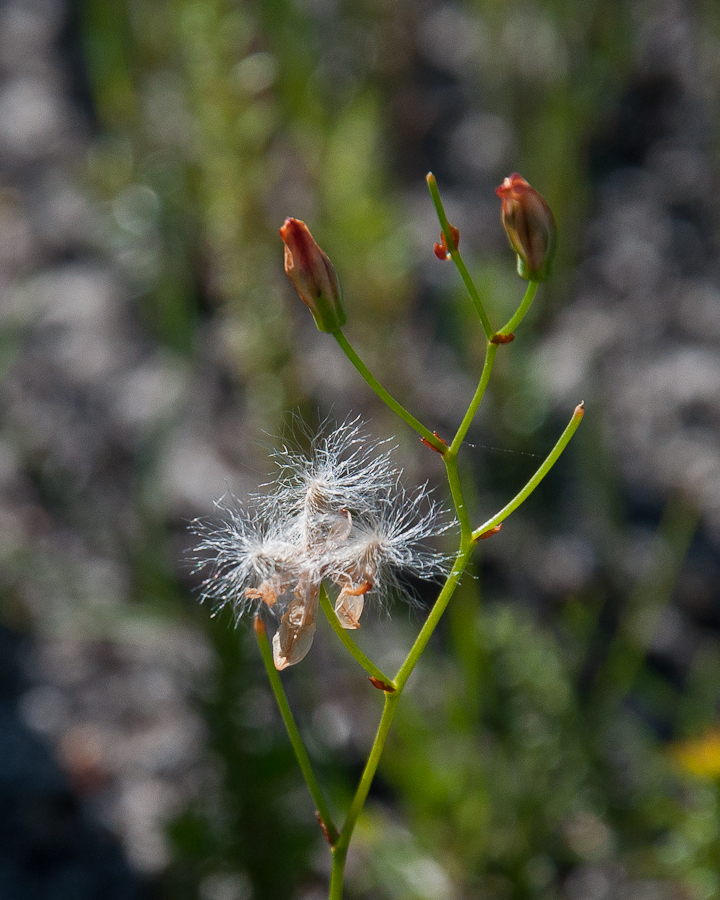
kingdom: Plantae
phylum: Tracheophyta
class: Liliopsida
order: Asparagales
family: Asparagaceae
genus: Eriospermum
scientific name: Eriospermum schlechteri
